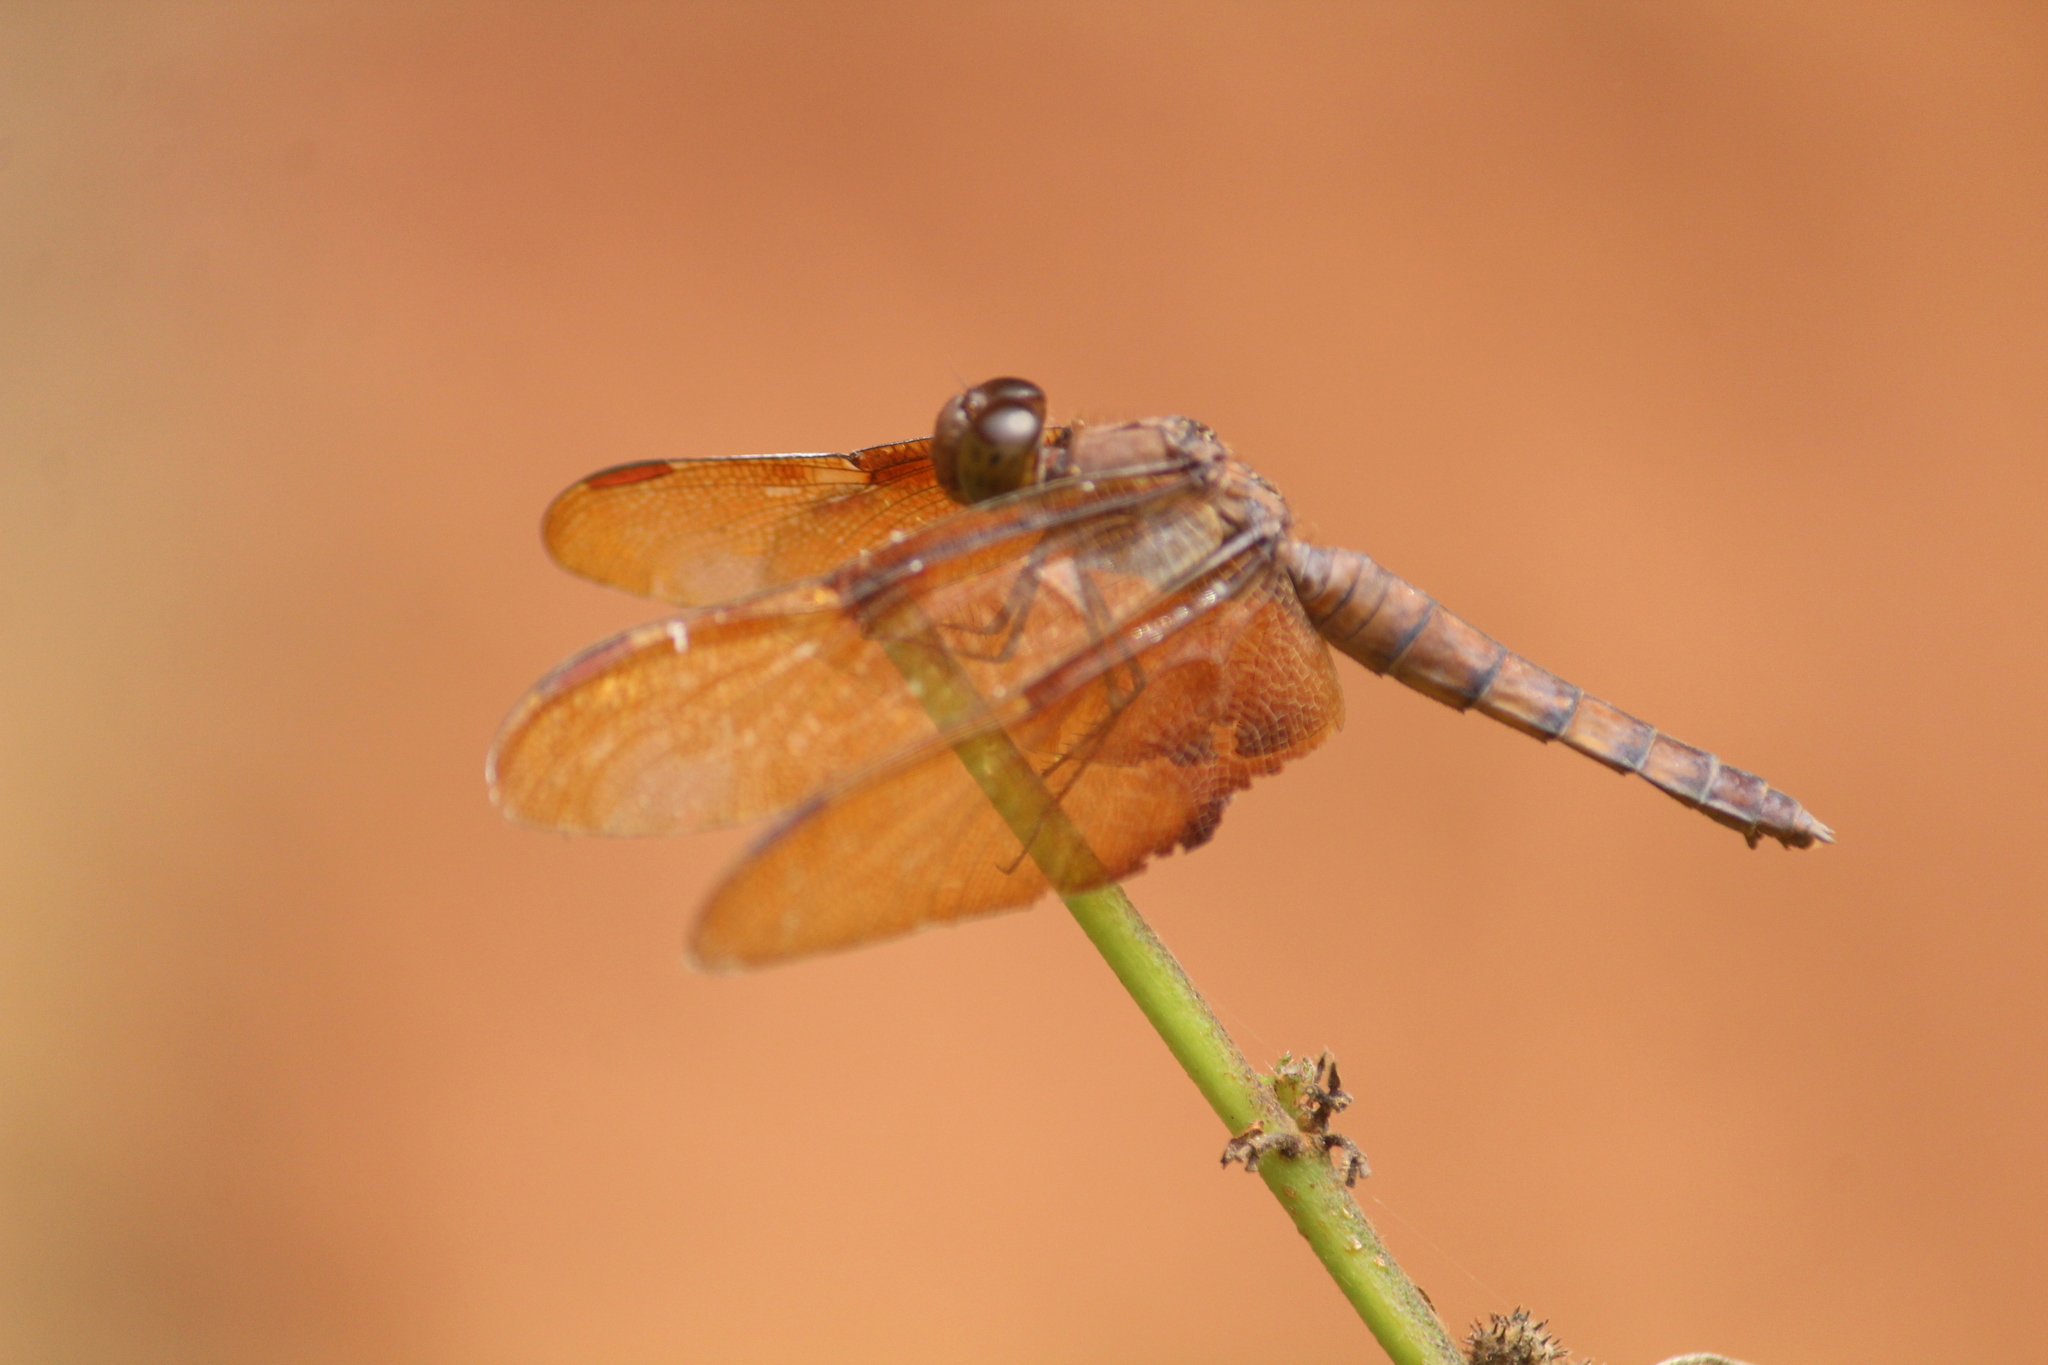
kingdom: Animalia
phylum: Arthropoda
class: Insecta
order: Odonata
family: Libellulidae
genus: Neurothemis
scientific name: Neurothemis fulvia
